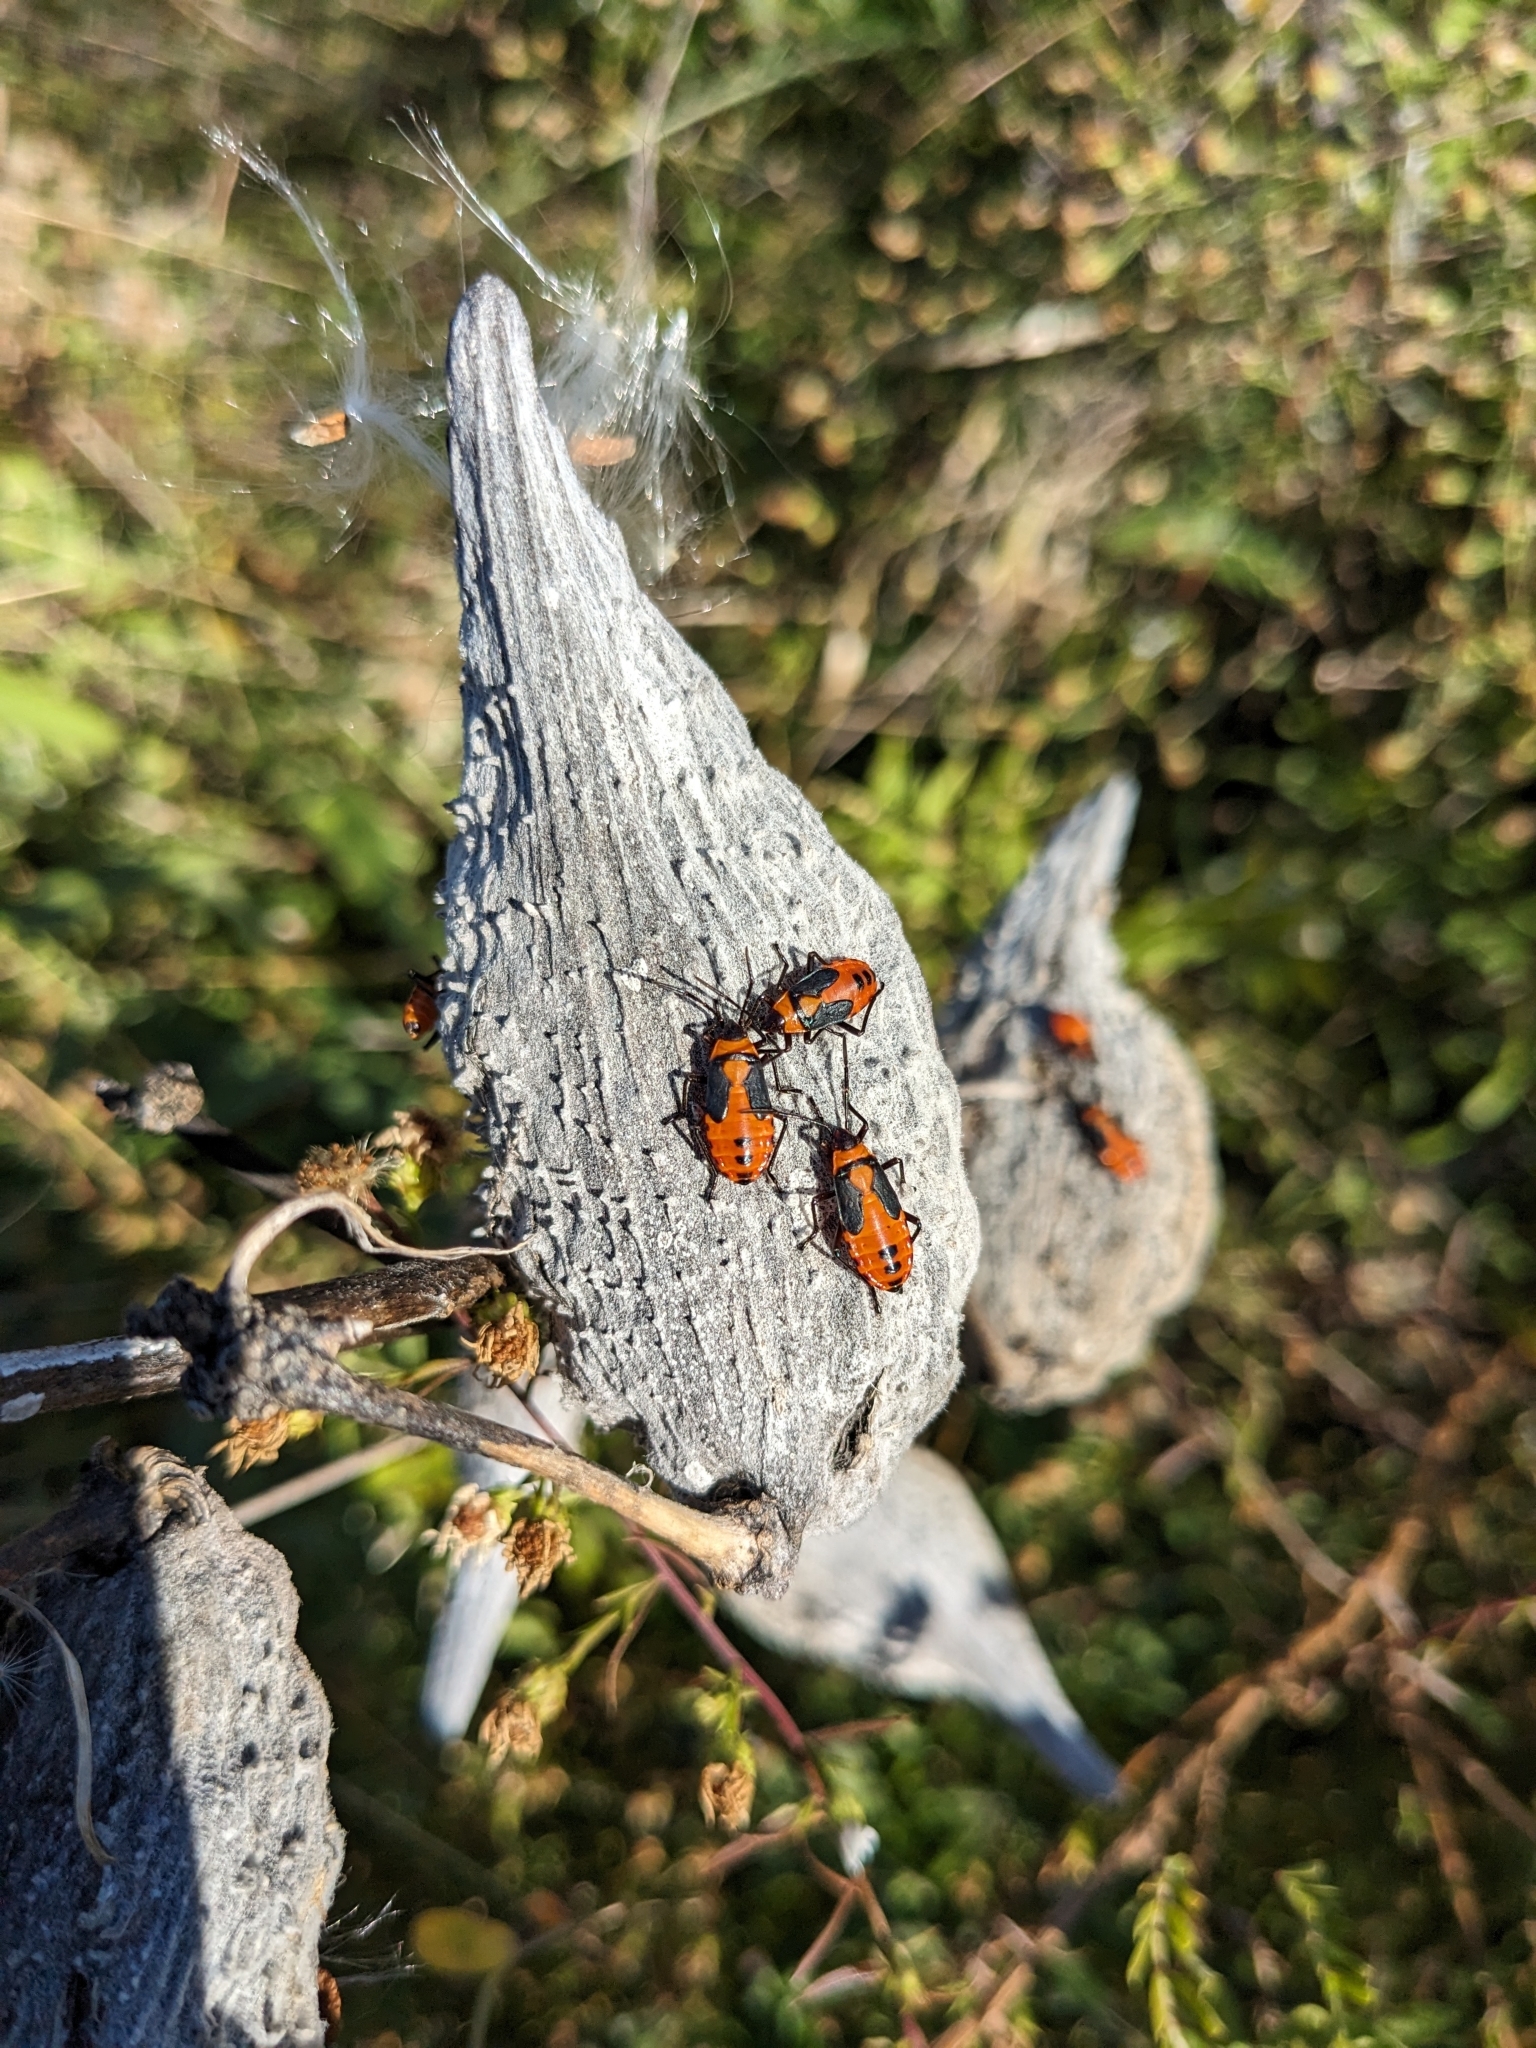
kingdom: Animalia
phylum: Arthropoda
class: Insecta
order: Hemiptera
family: Lygaeidae
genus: Oncopeltus
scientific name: Oncopeltus fasciatus
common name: Large milkweed bug
